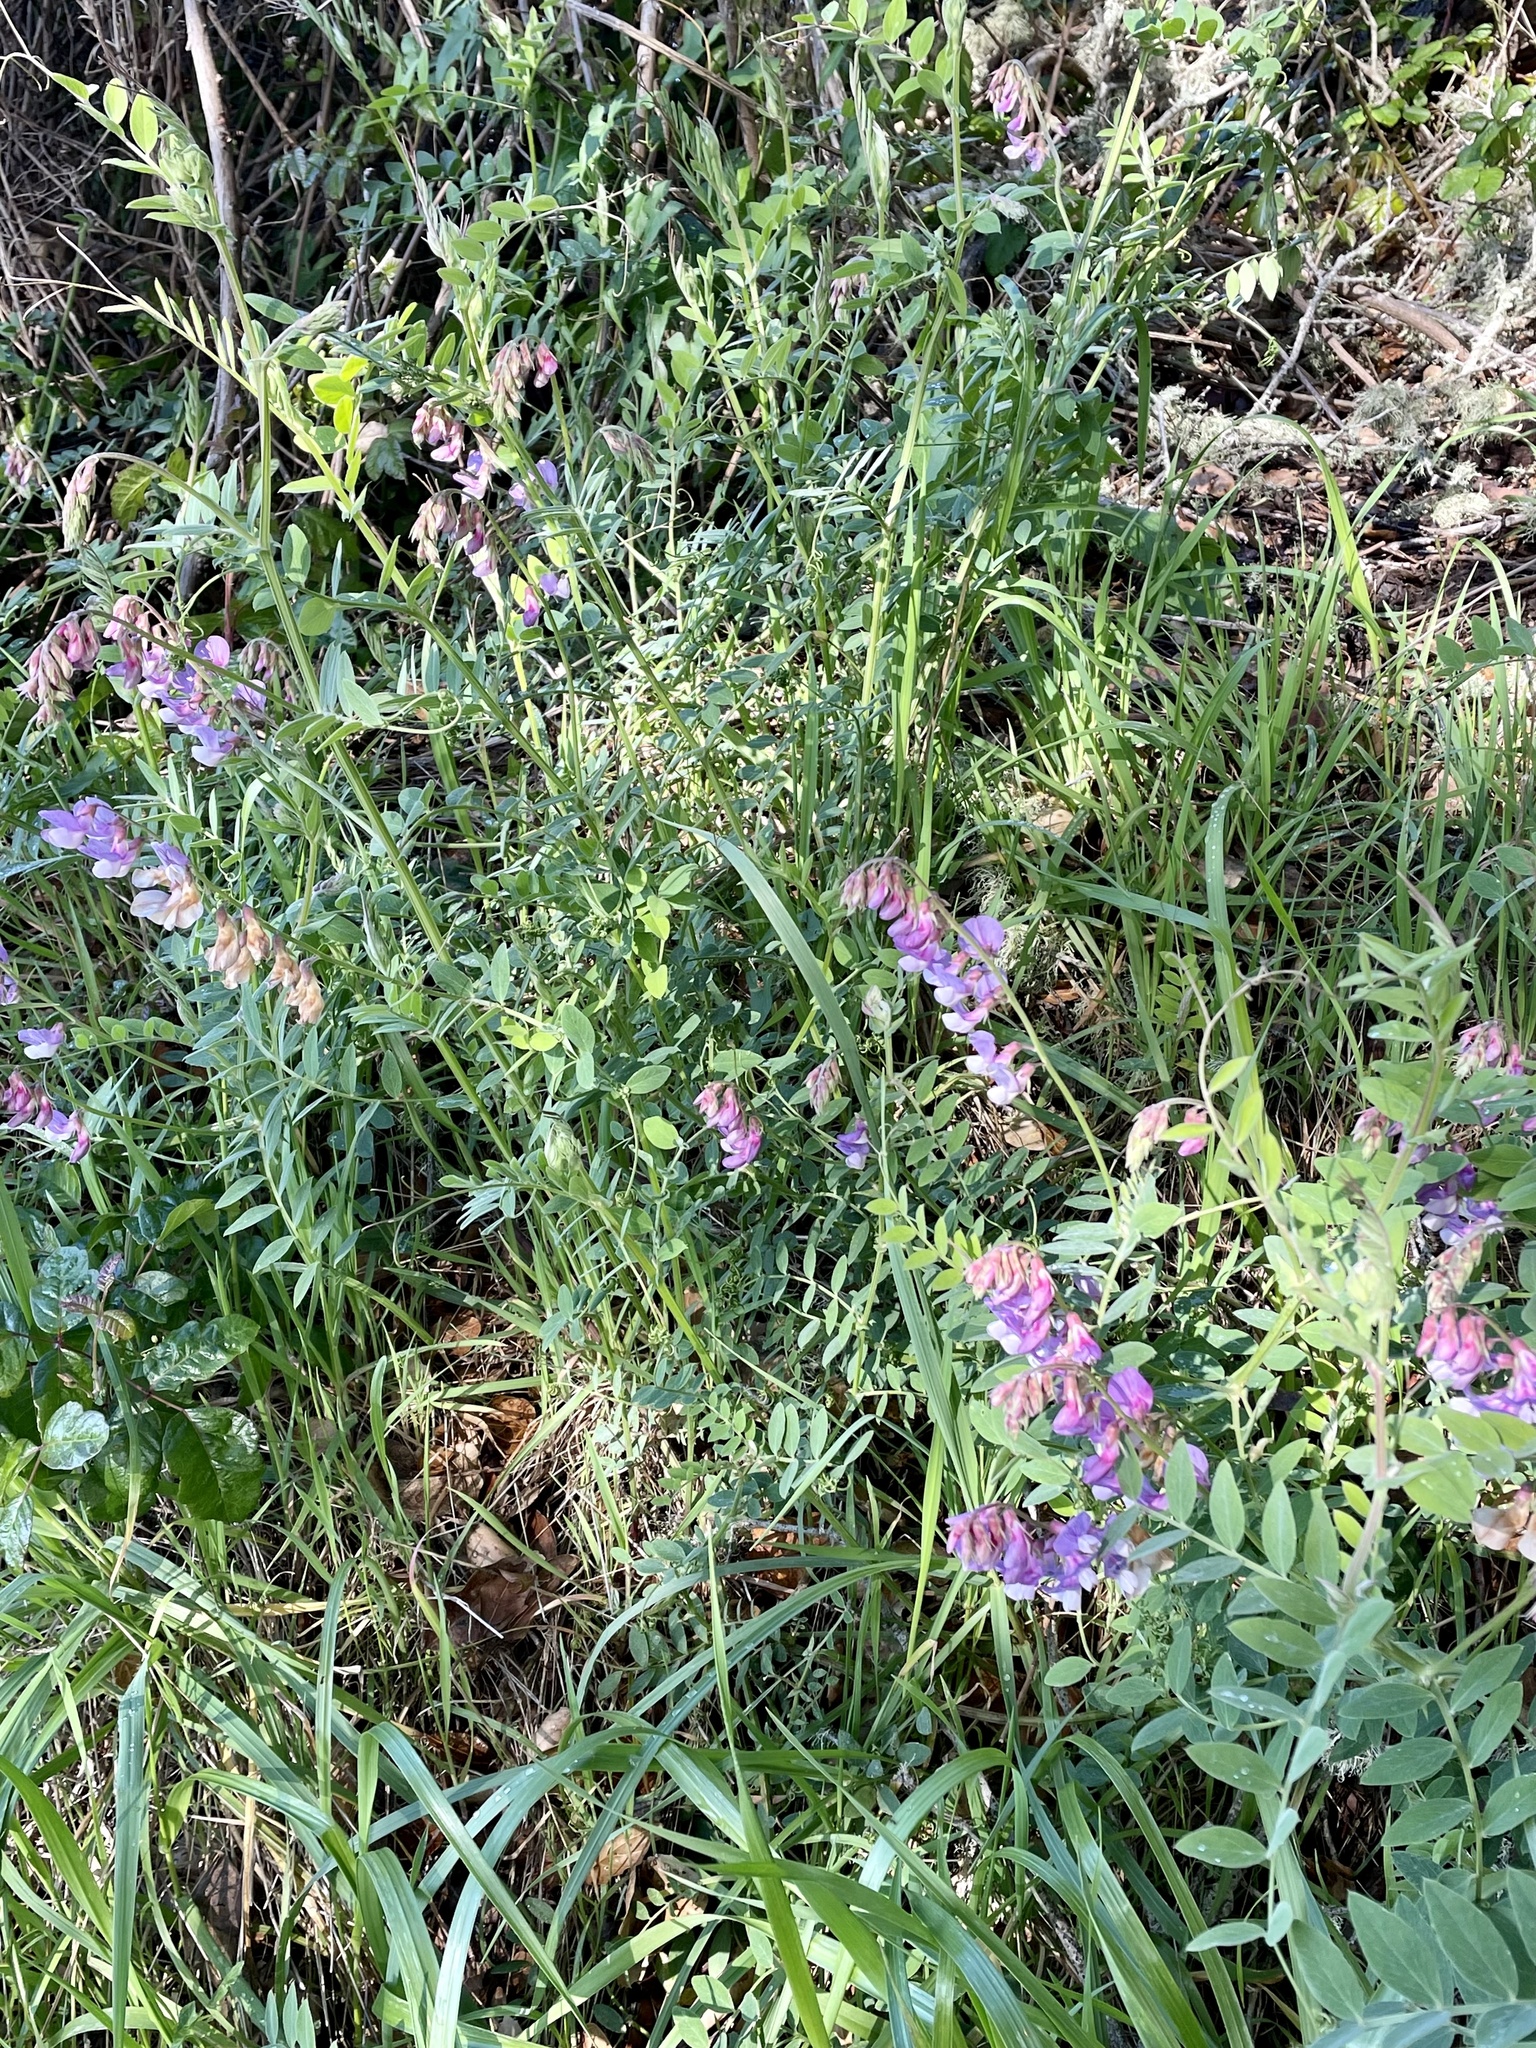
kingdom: Plantae
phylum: Tracheophyta
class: Magnoliopsida
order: Fabales
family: Fabaceae
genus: Lathyrus
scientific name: Lathyrus vestitus
